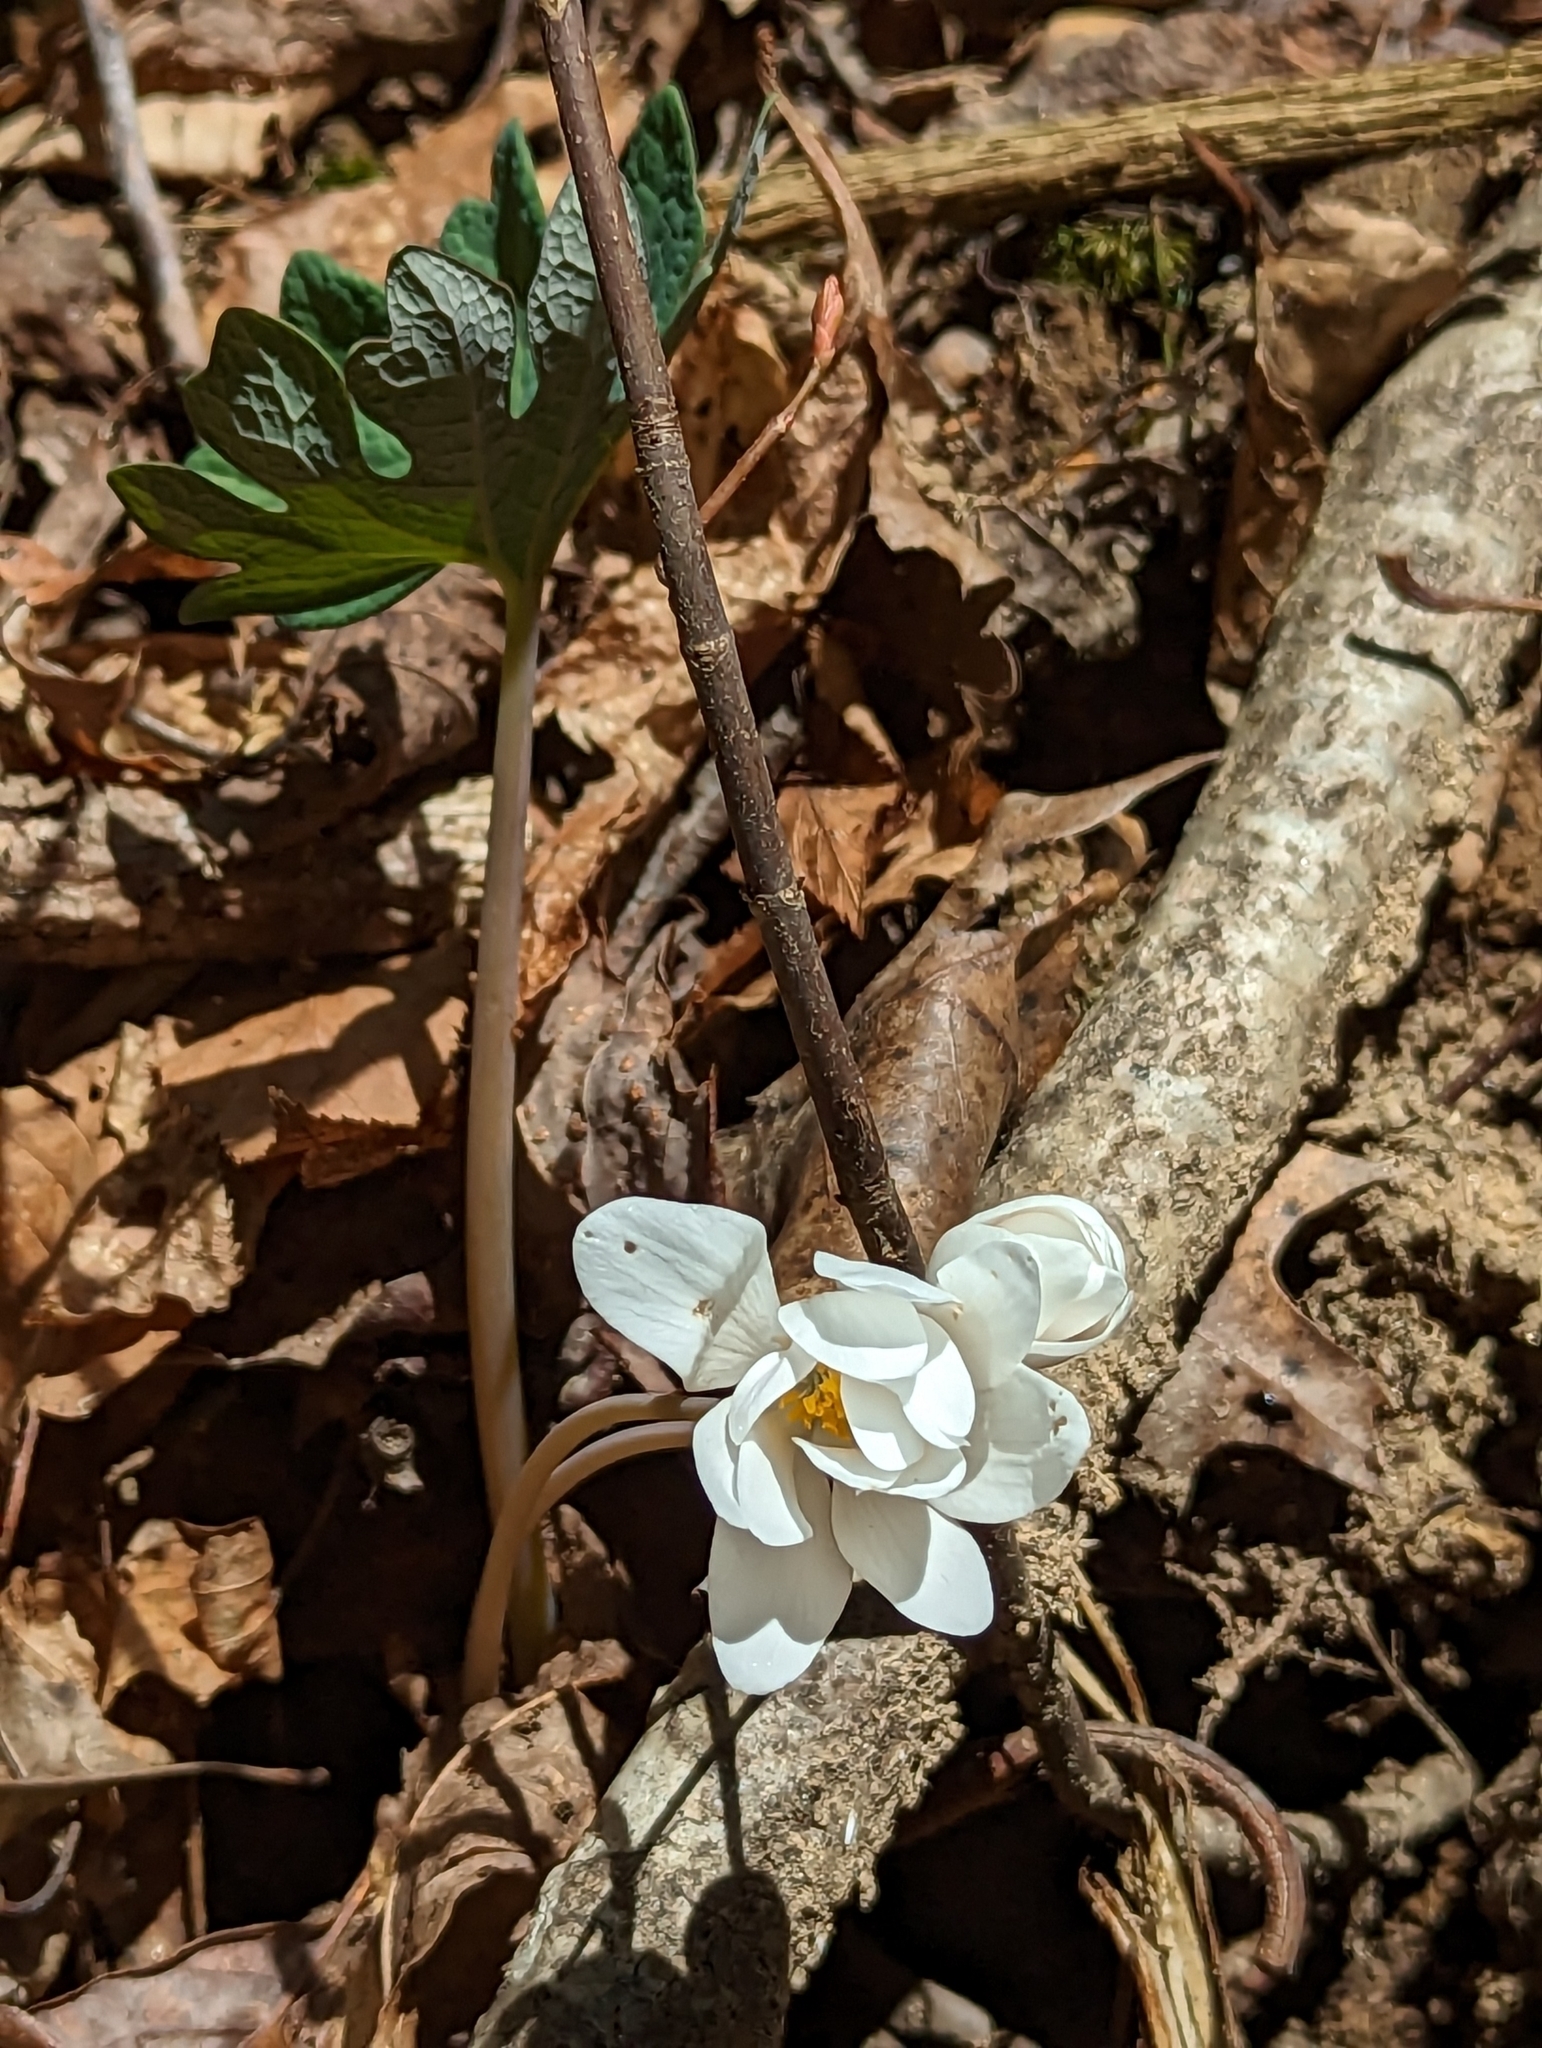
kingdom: Plantae
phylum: Tracheophyta
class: Magnoliopsida
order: Ranunculales
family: Papaveraceae
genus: Sanguinaria
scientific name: Sanguinaria canadensis
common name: Bloodroot
